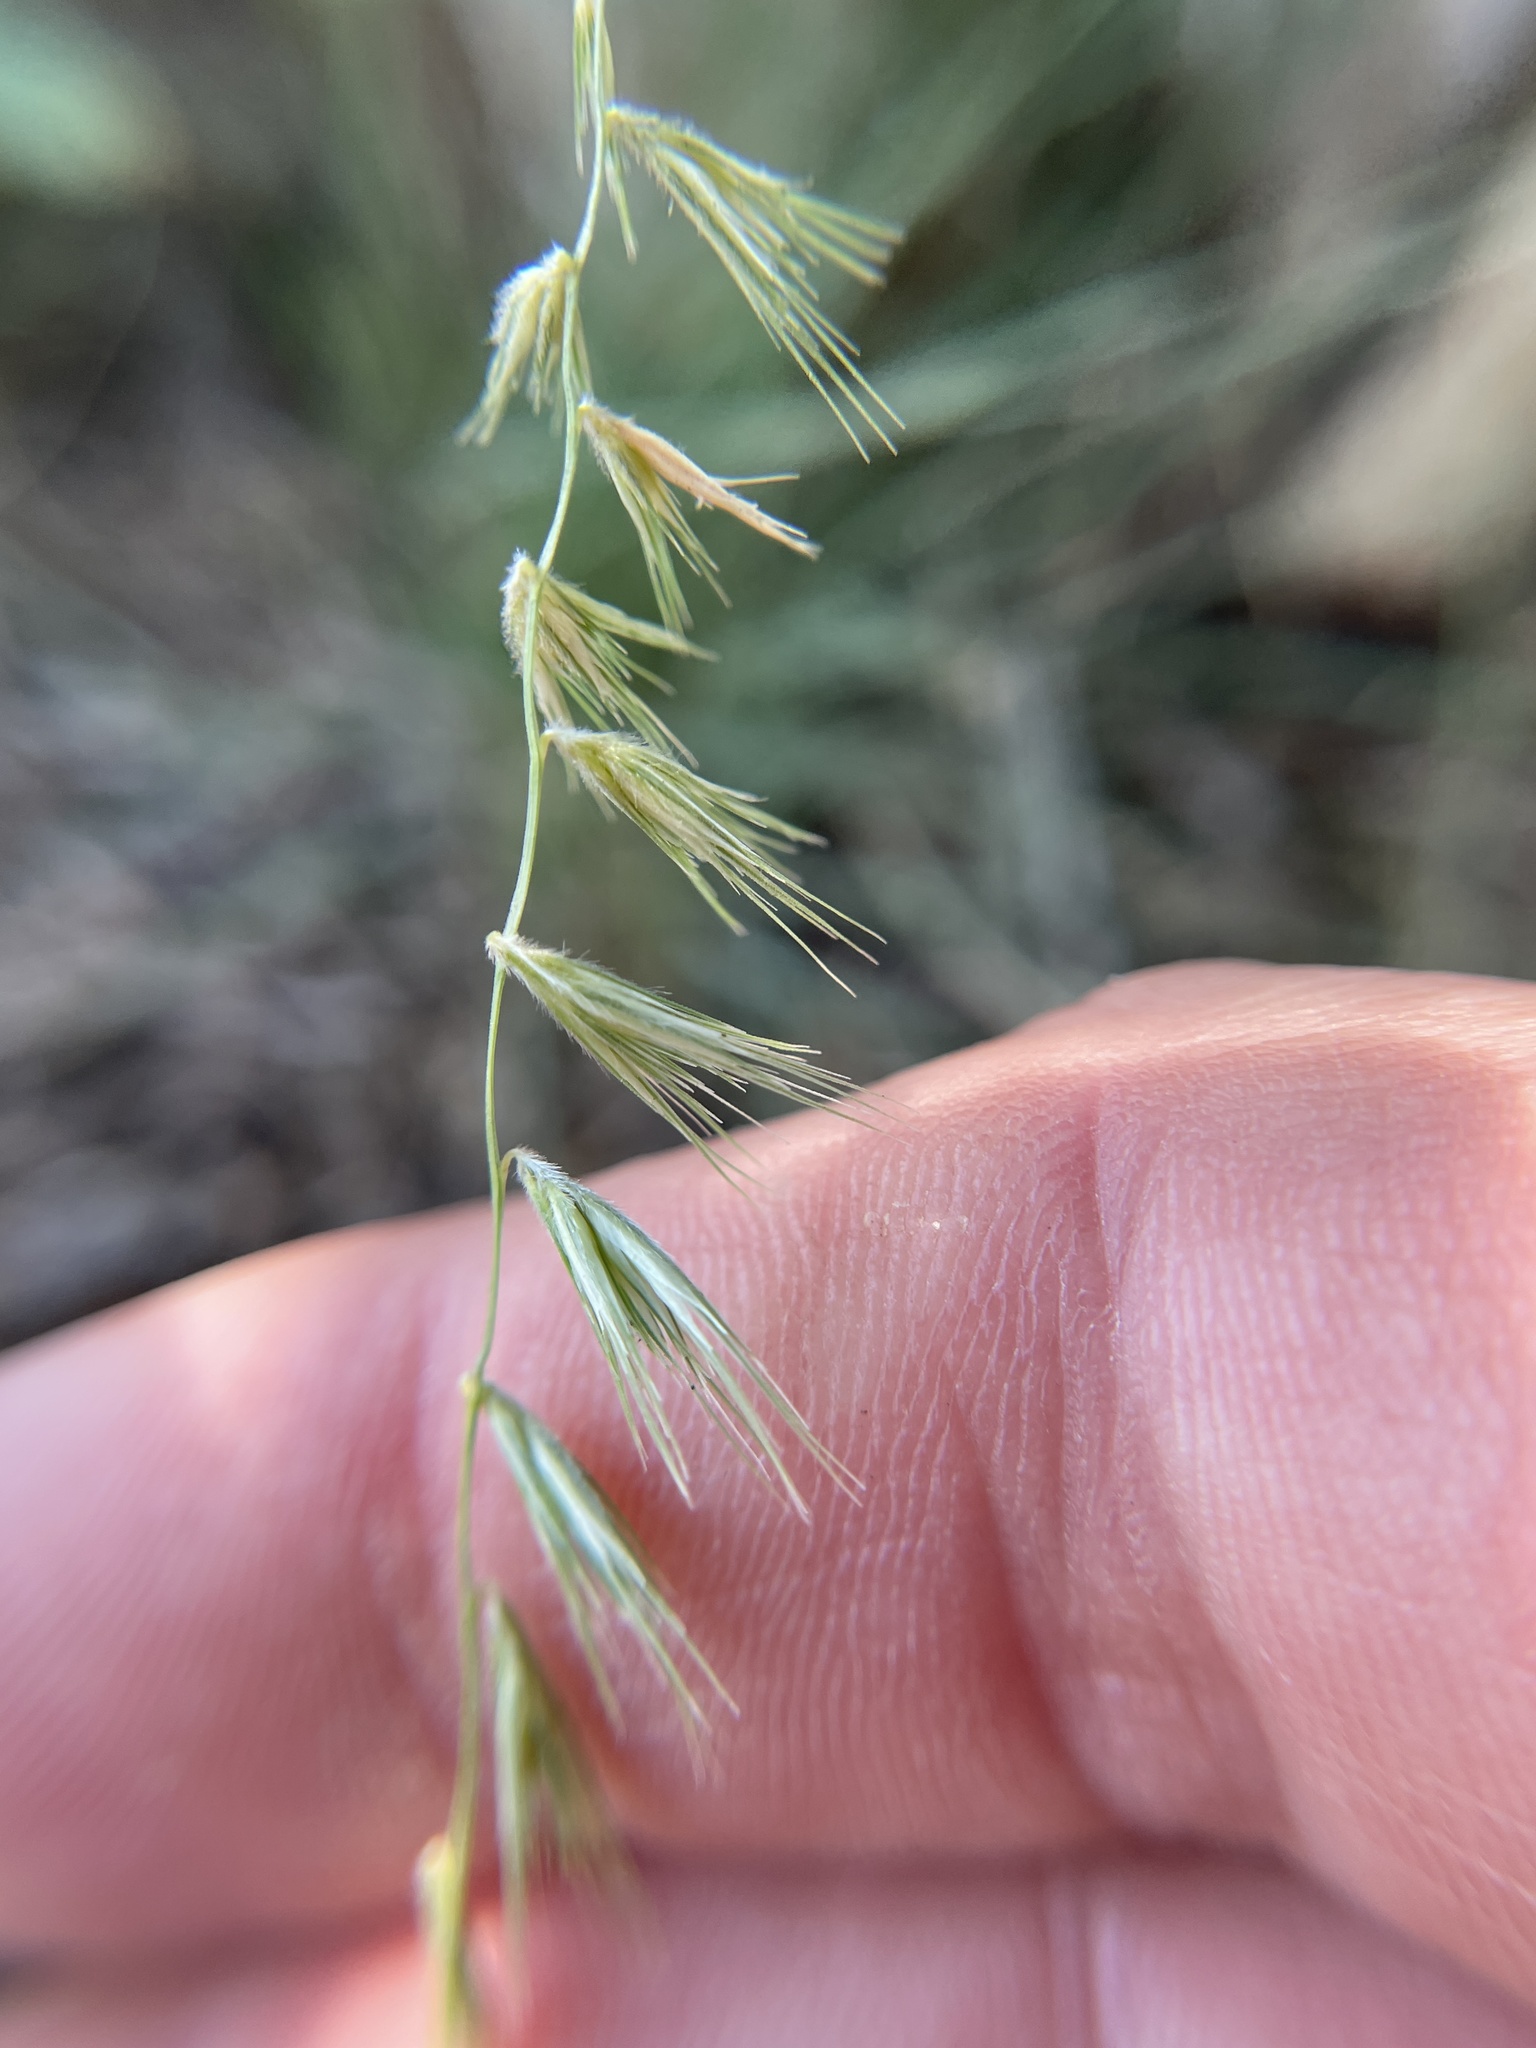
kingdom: Plantae
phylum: Tracheophyta
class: Liliopsida
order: Poales
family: Poaceae
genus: Bouteloua
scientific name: Bouteloua rigidiseta
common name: Texas grama
